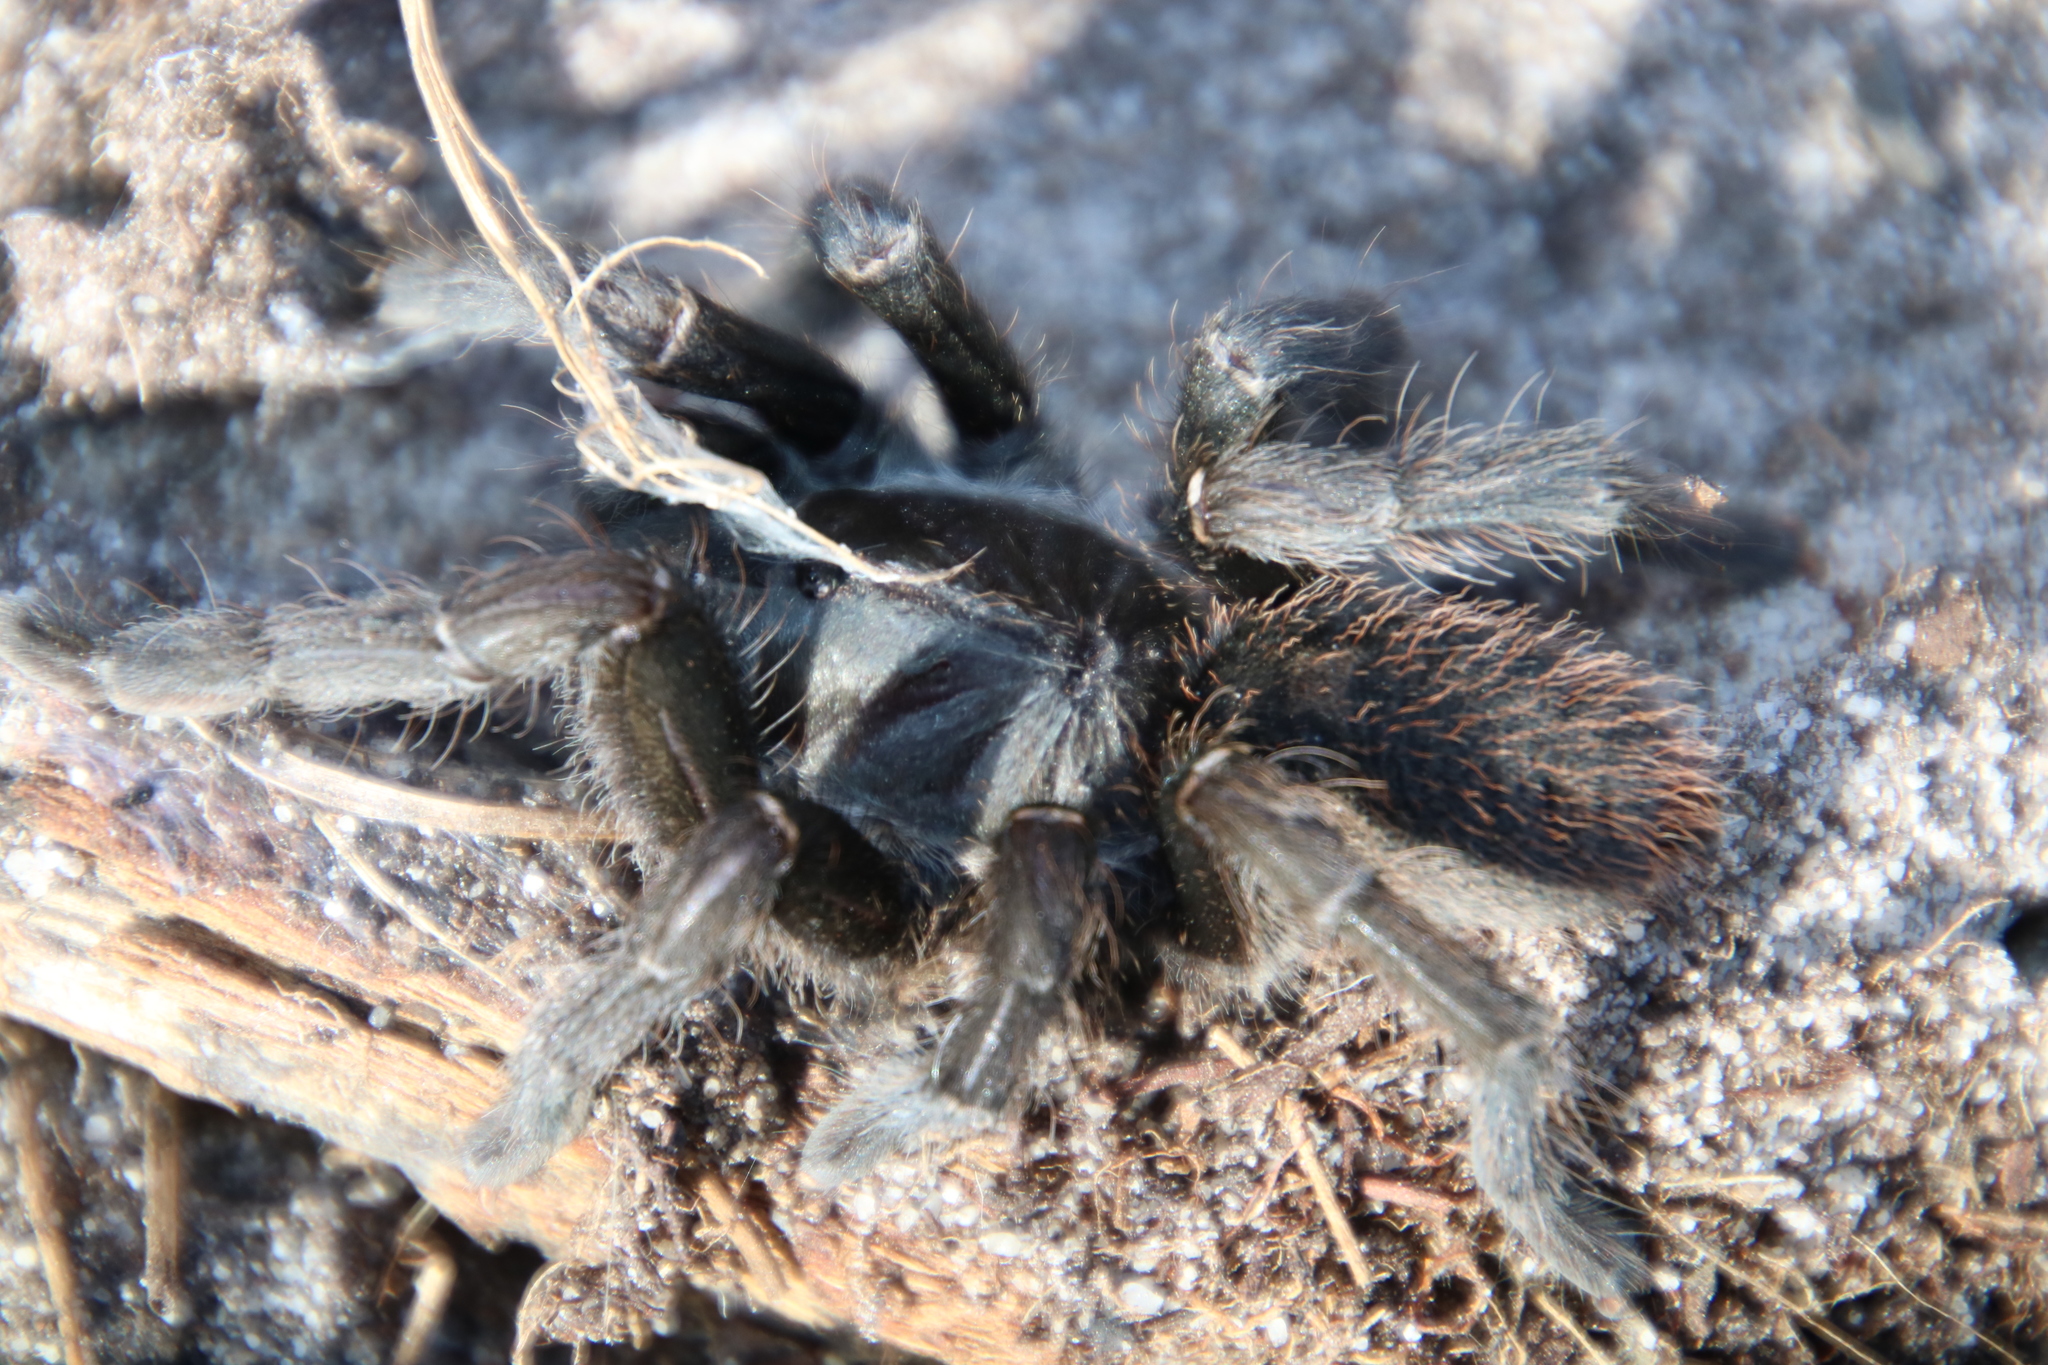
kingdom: Animalia
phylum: Arthropoda
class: Arachnida
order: Araneae
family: Theraphosidae
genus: Harpactira
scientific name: Harpactira atra
